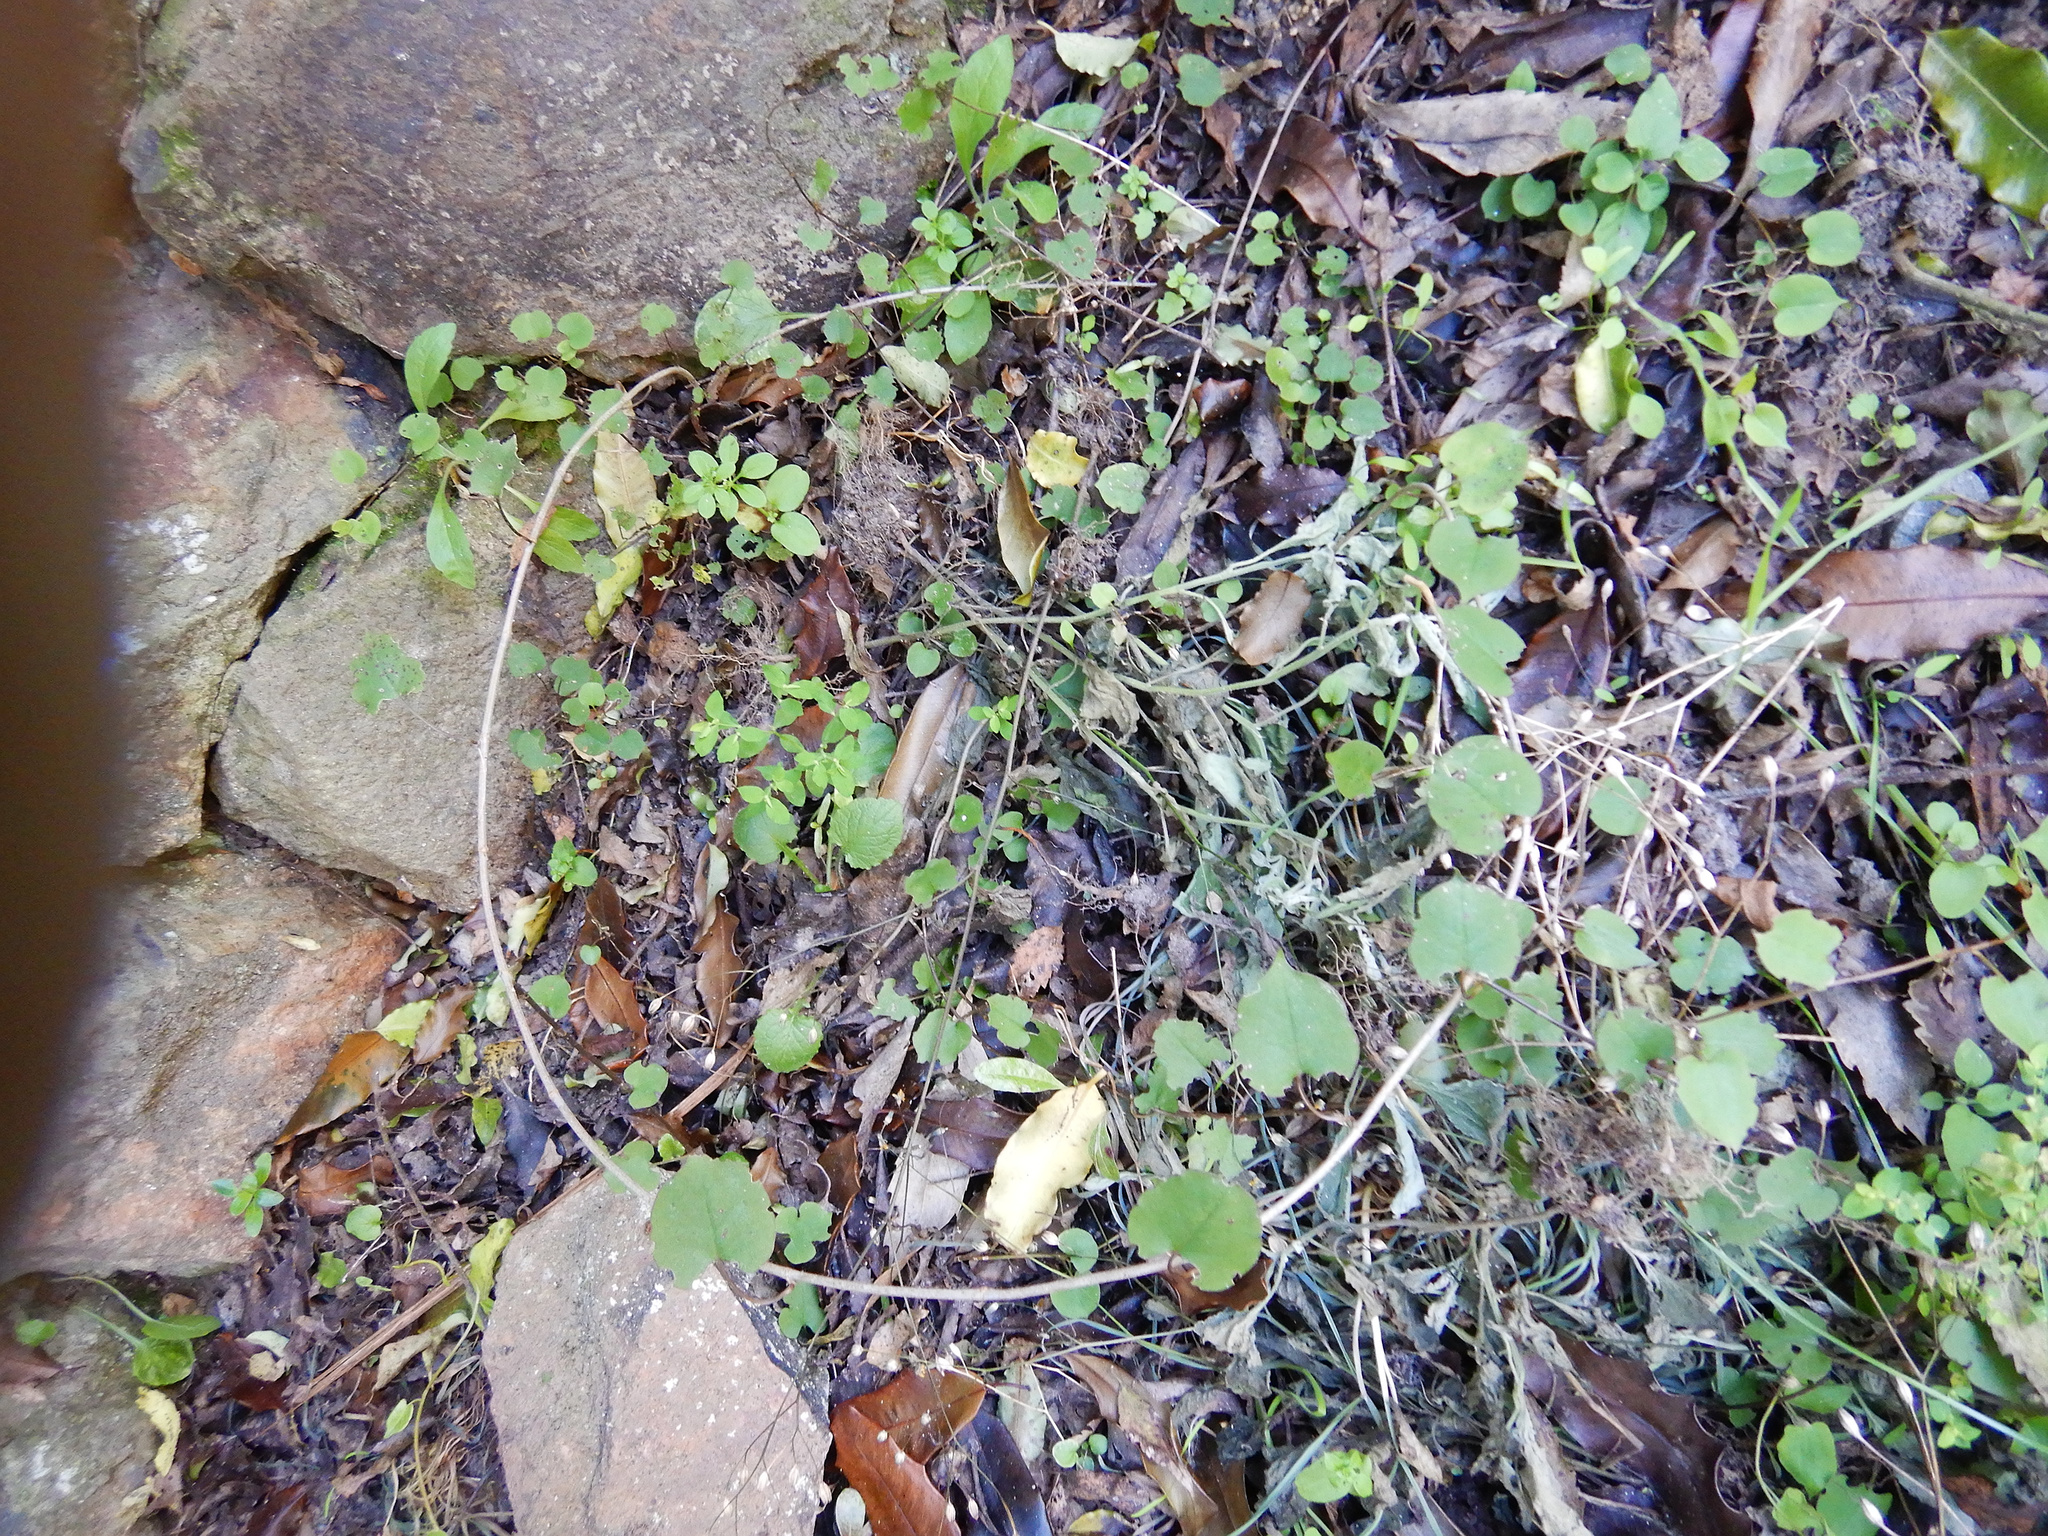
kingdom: Plantae
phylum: Tracheophyta
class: Magnoliopsida
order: Caryophyllales
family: Polygonaceae
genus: Muehlenbeckia
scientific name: Muehlenbeckia australis
